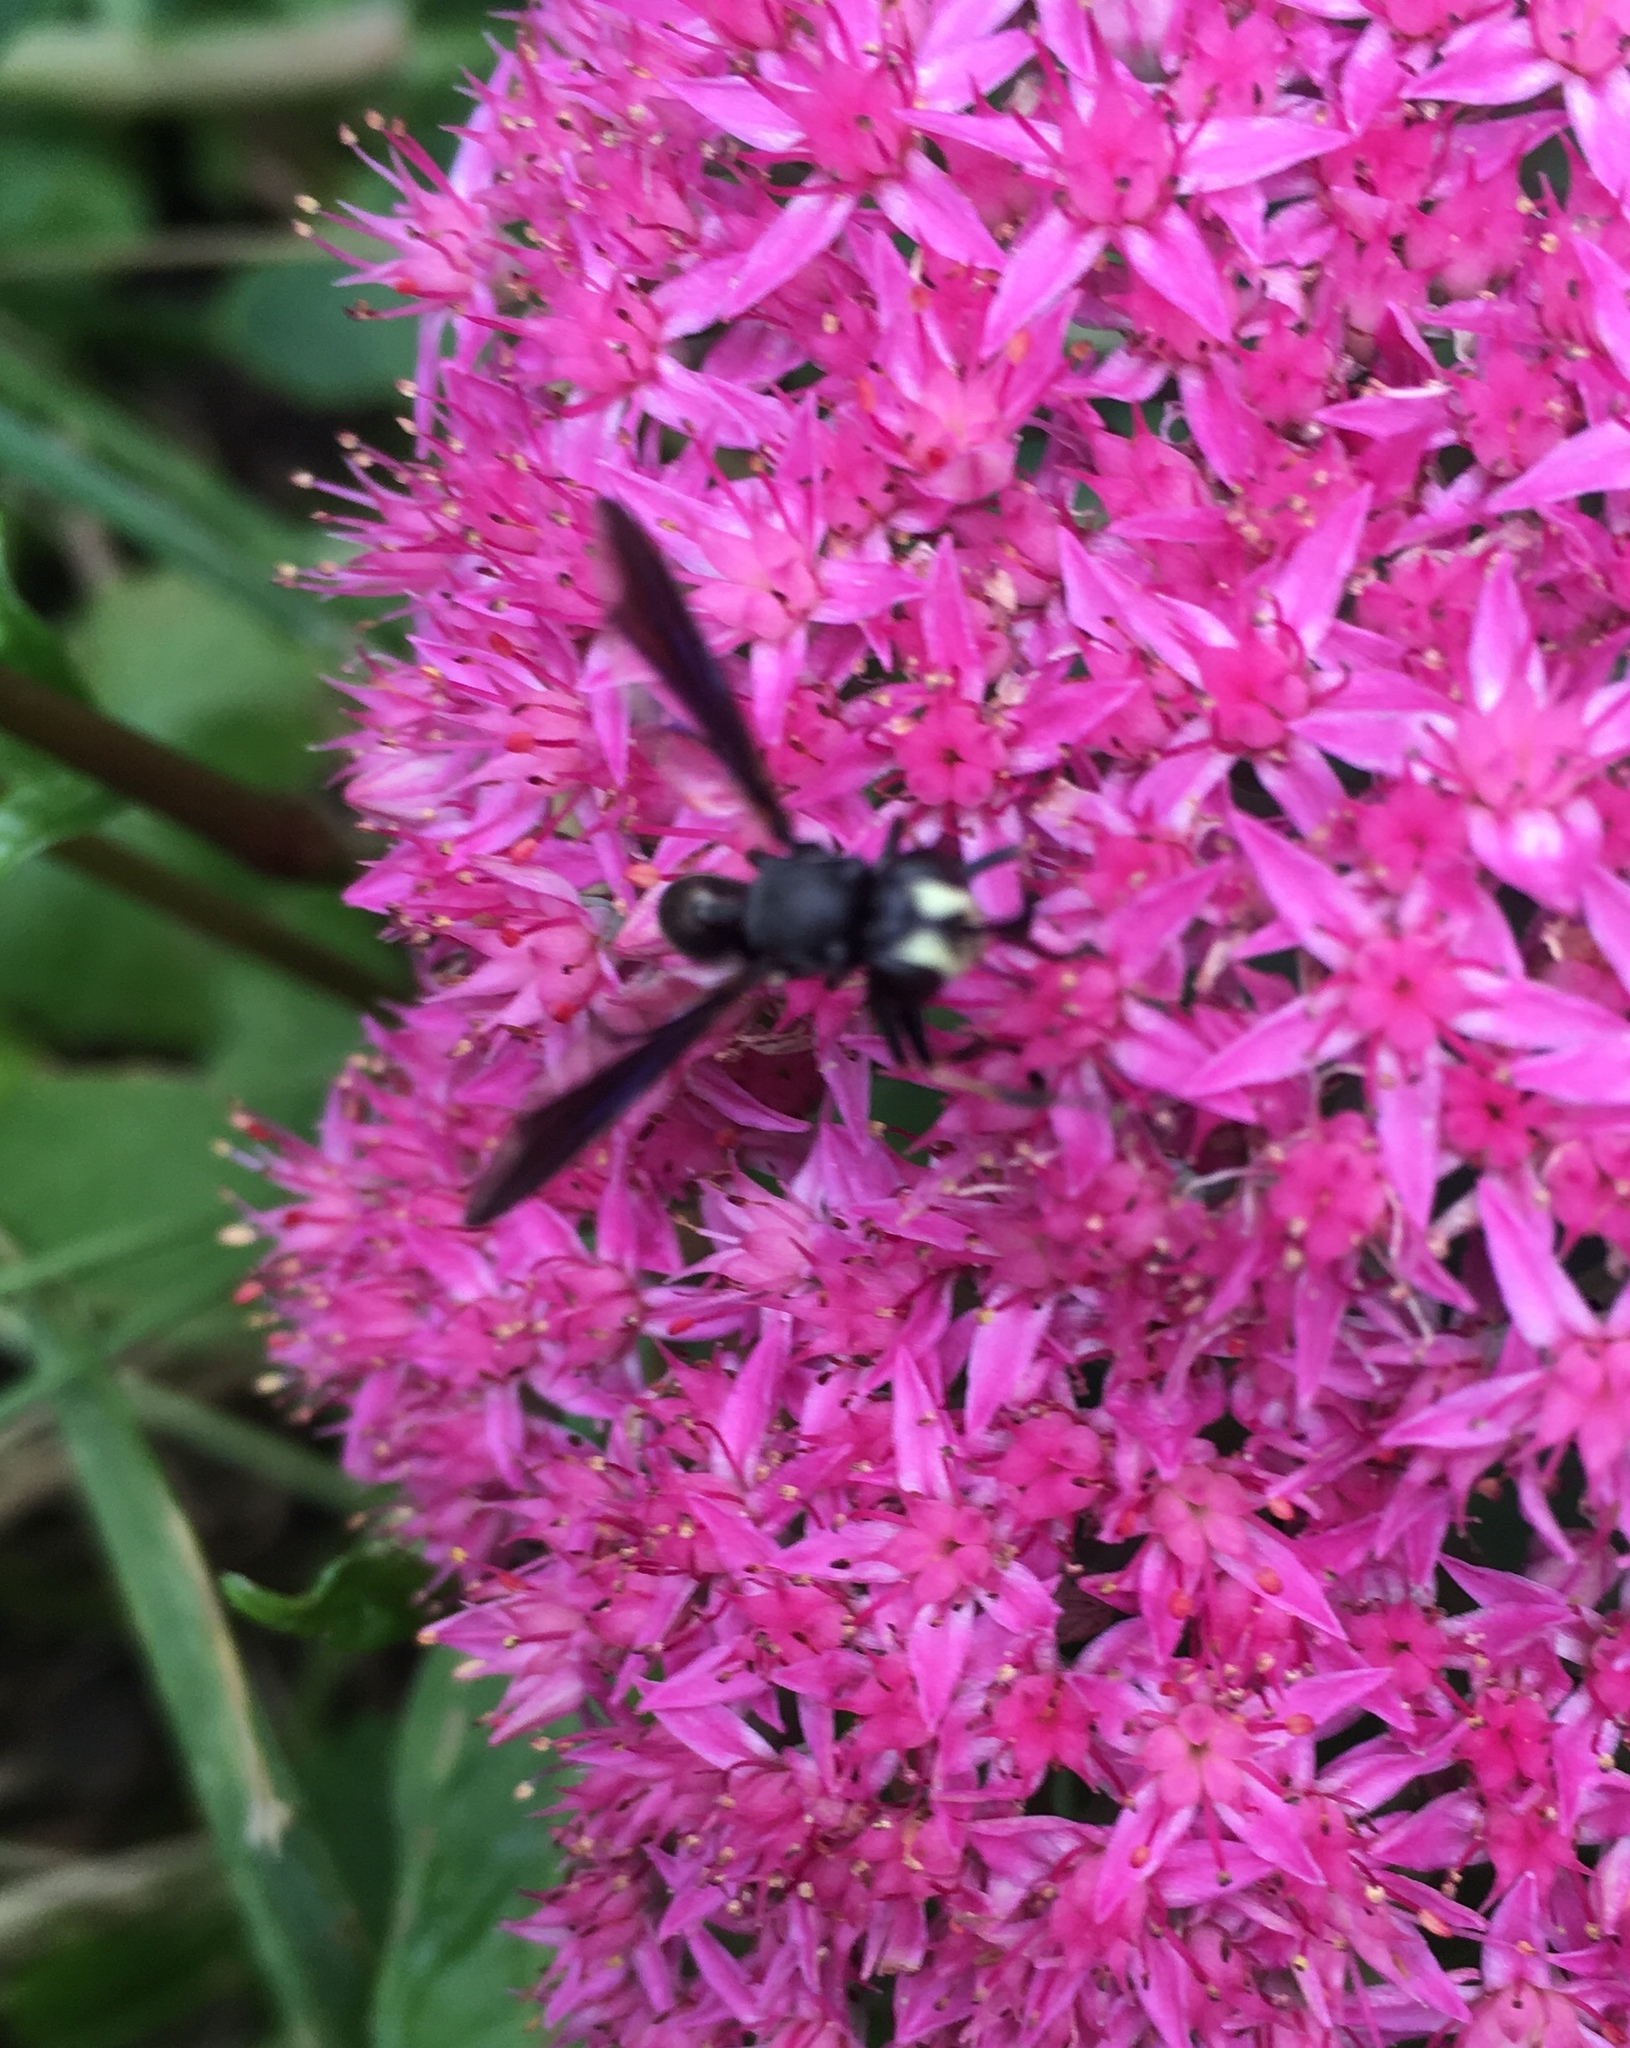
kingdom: Animalia
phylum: Arthropoda
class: Insecta
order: Diptera
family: Conopidae
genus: Physocephala
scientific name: Physocephala tibialis
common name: Common eastern physocephala
